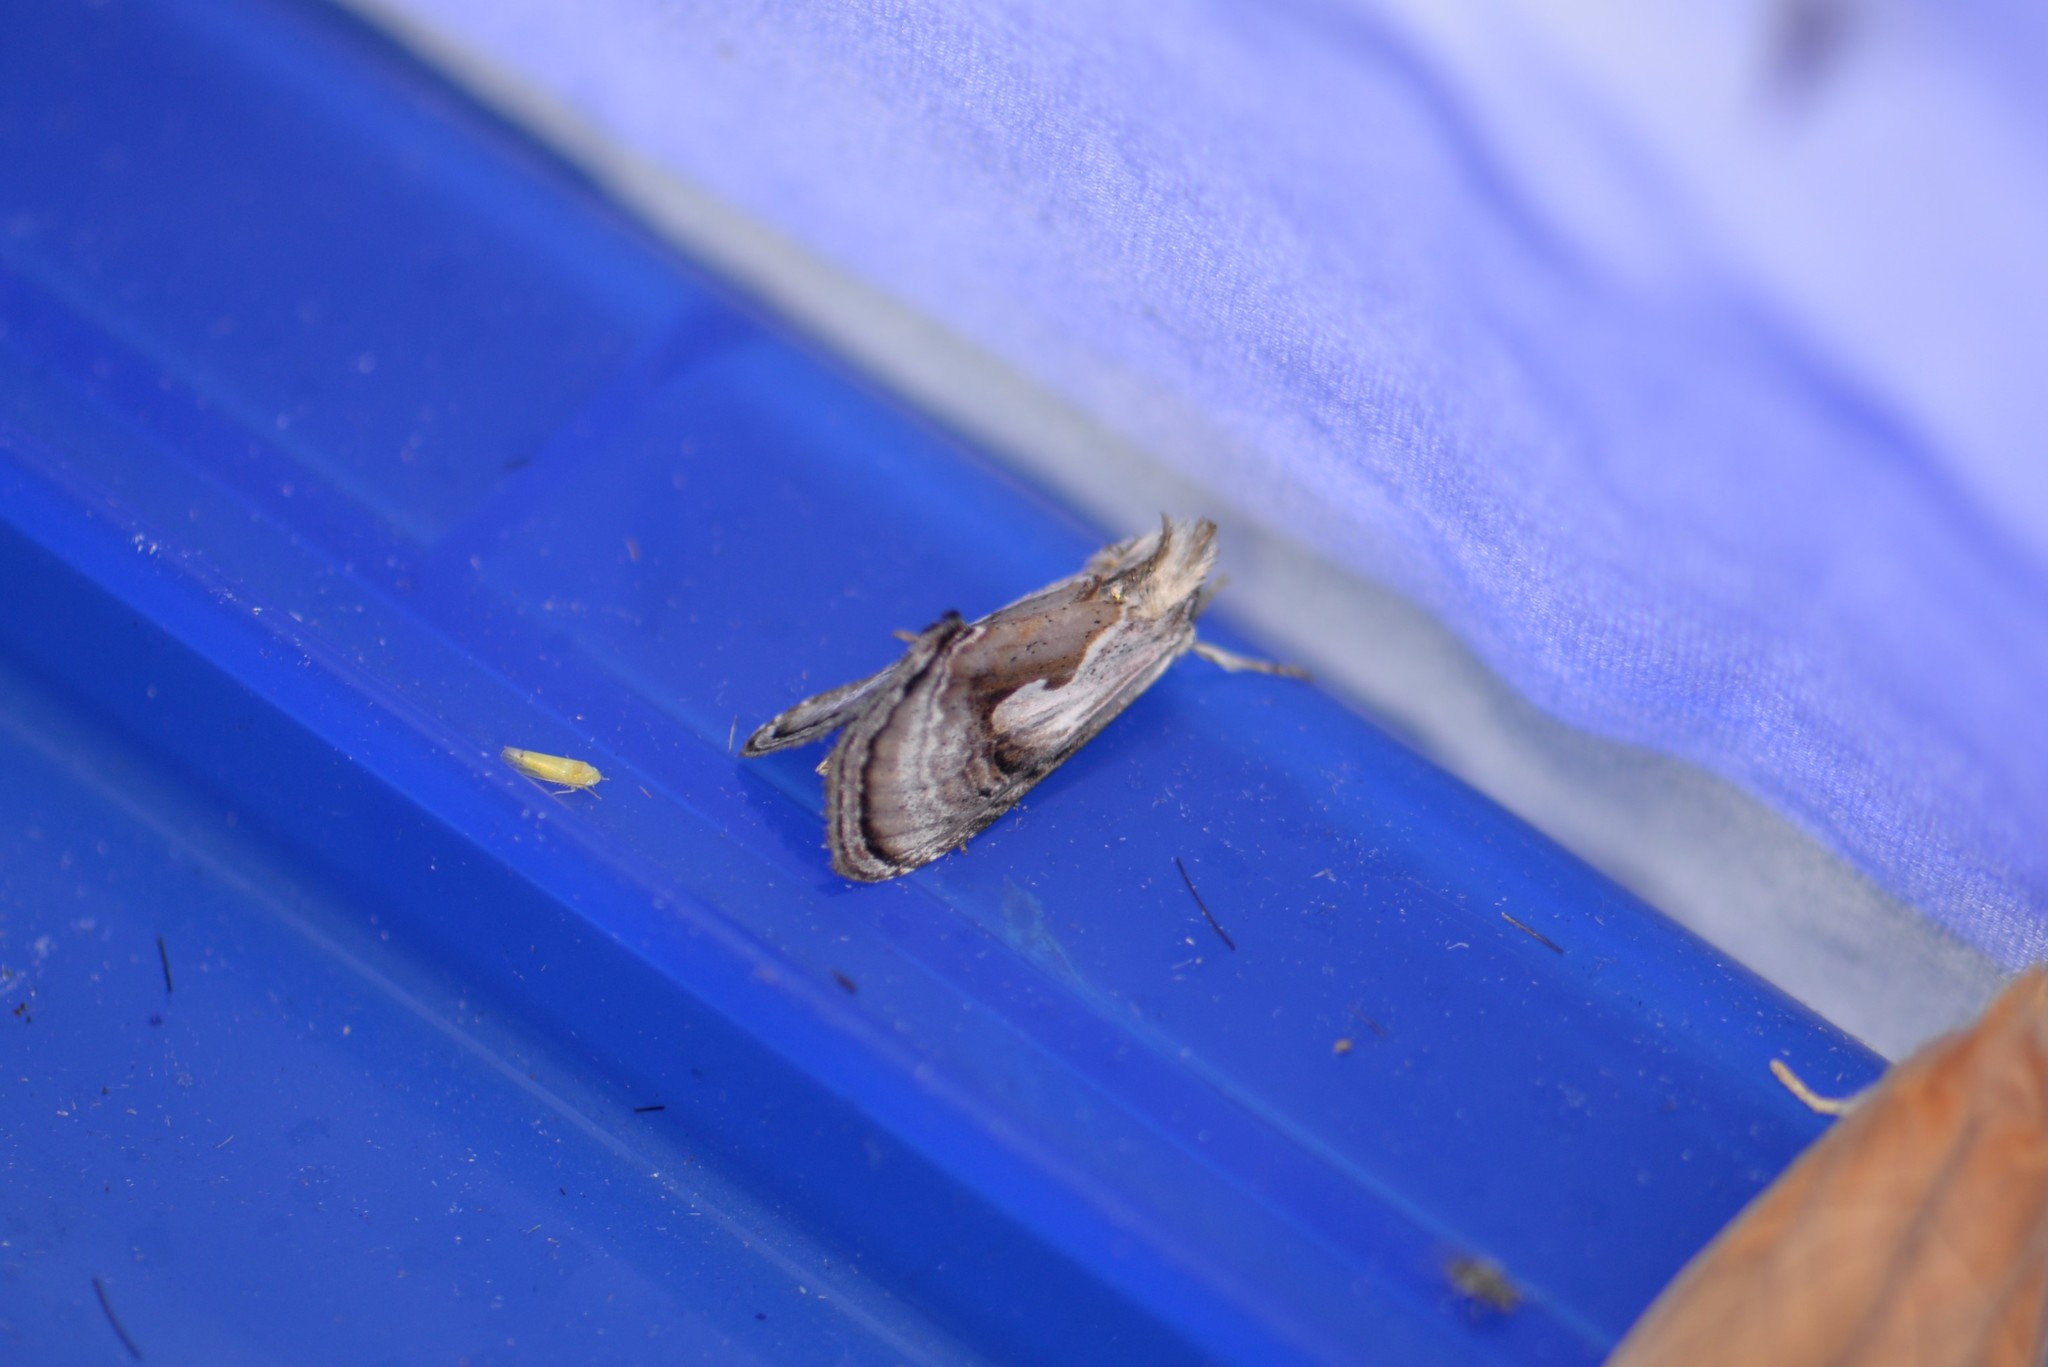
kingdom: Animalia
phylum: Arthropoda
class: Insecta
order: Lepidoptera
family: Noctuidae
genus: Chrysanympha
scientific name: Chrysanympha formosa
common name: Formosa looper moth
